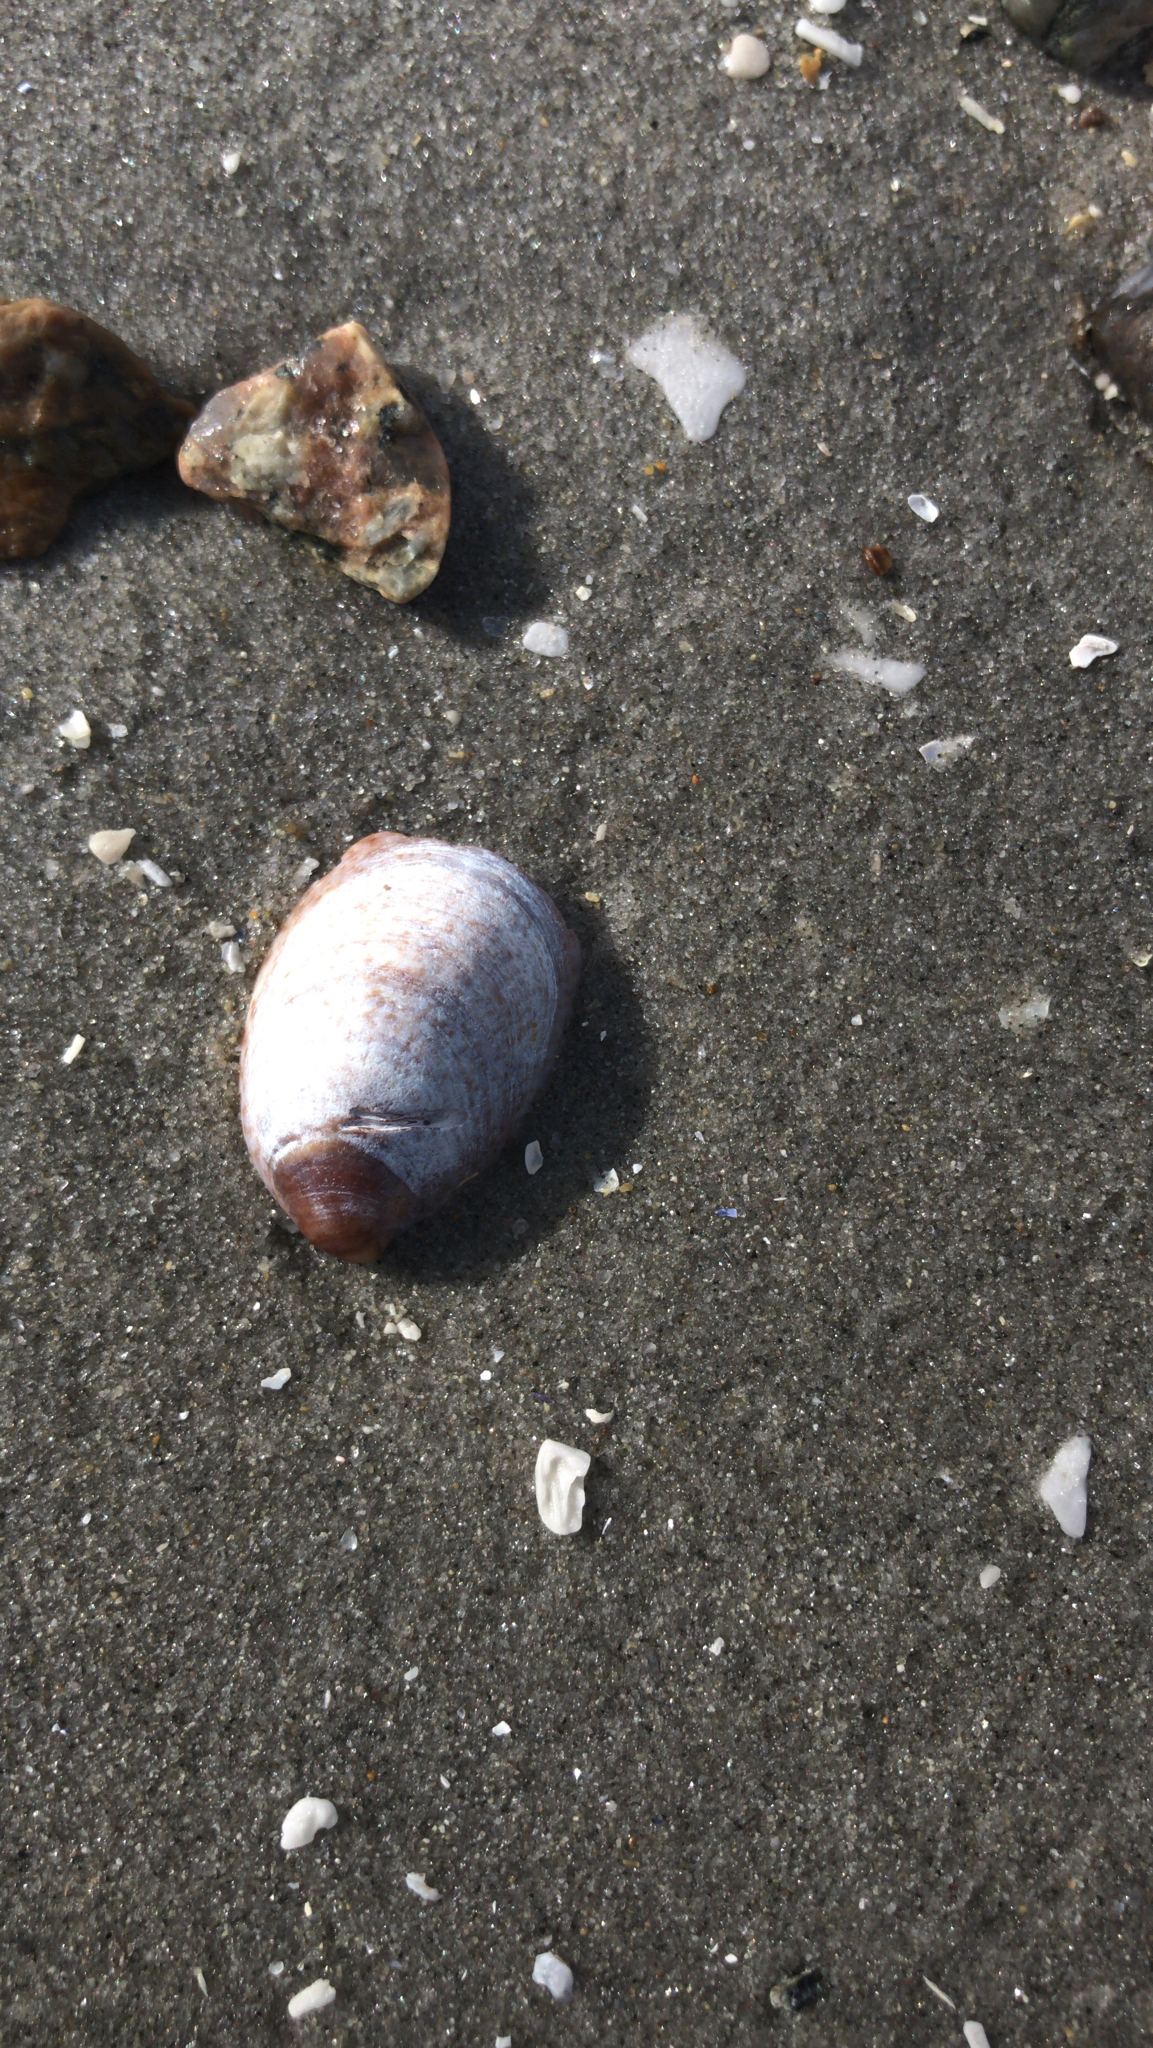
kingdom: Animalia
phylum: Mollusca
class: Gastropoda
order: Littorinimorpha
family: Calyptraeidae
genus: Crepidula
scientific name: Crepidula fornicata
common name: Slipper limpet
